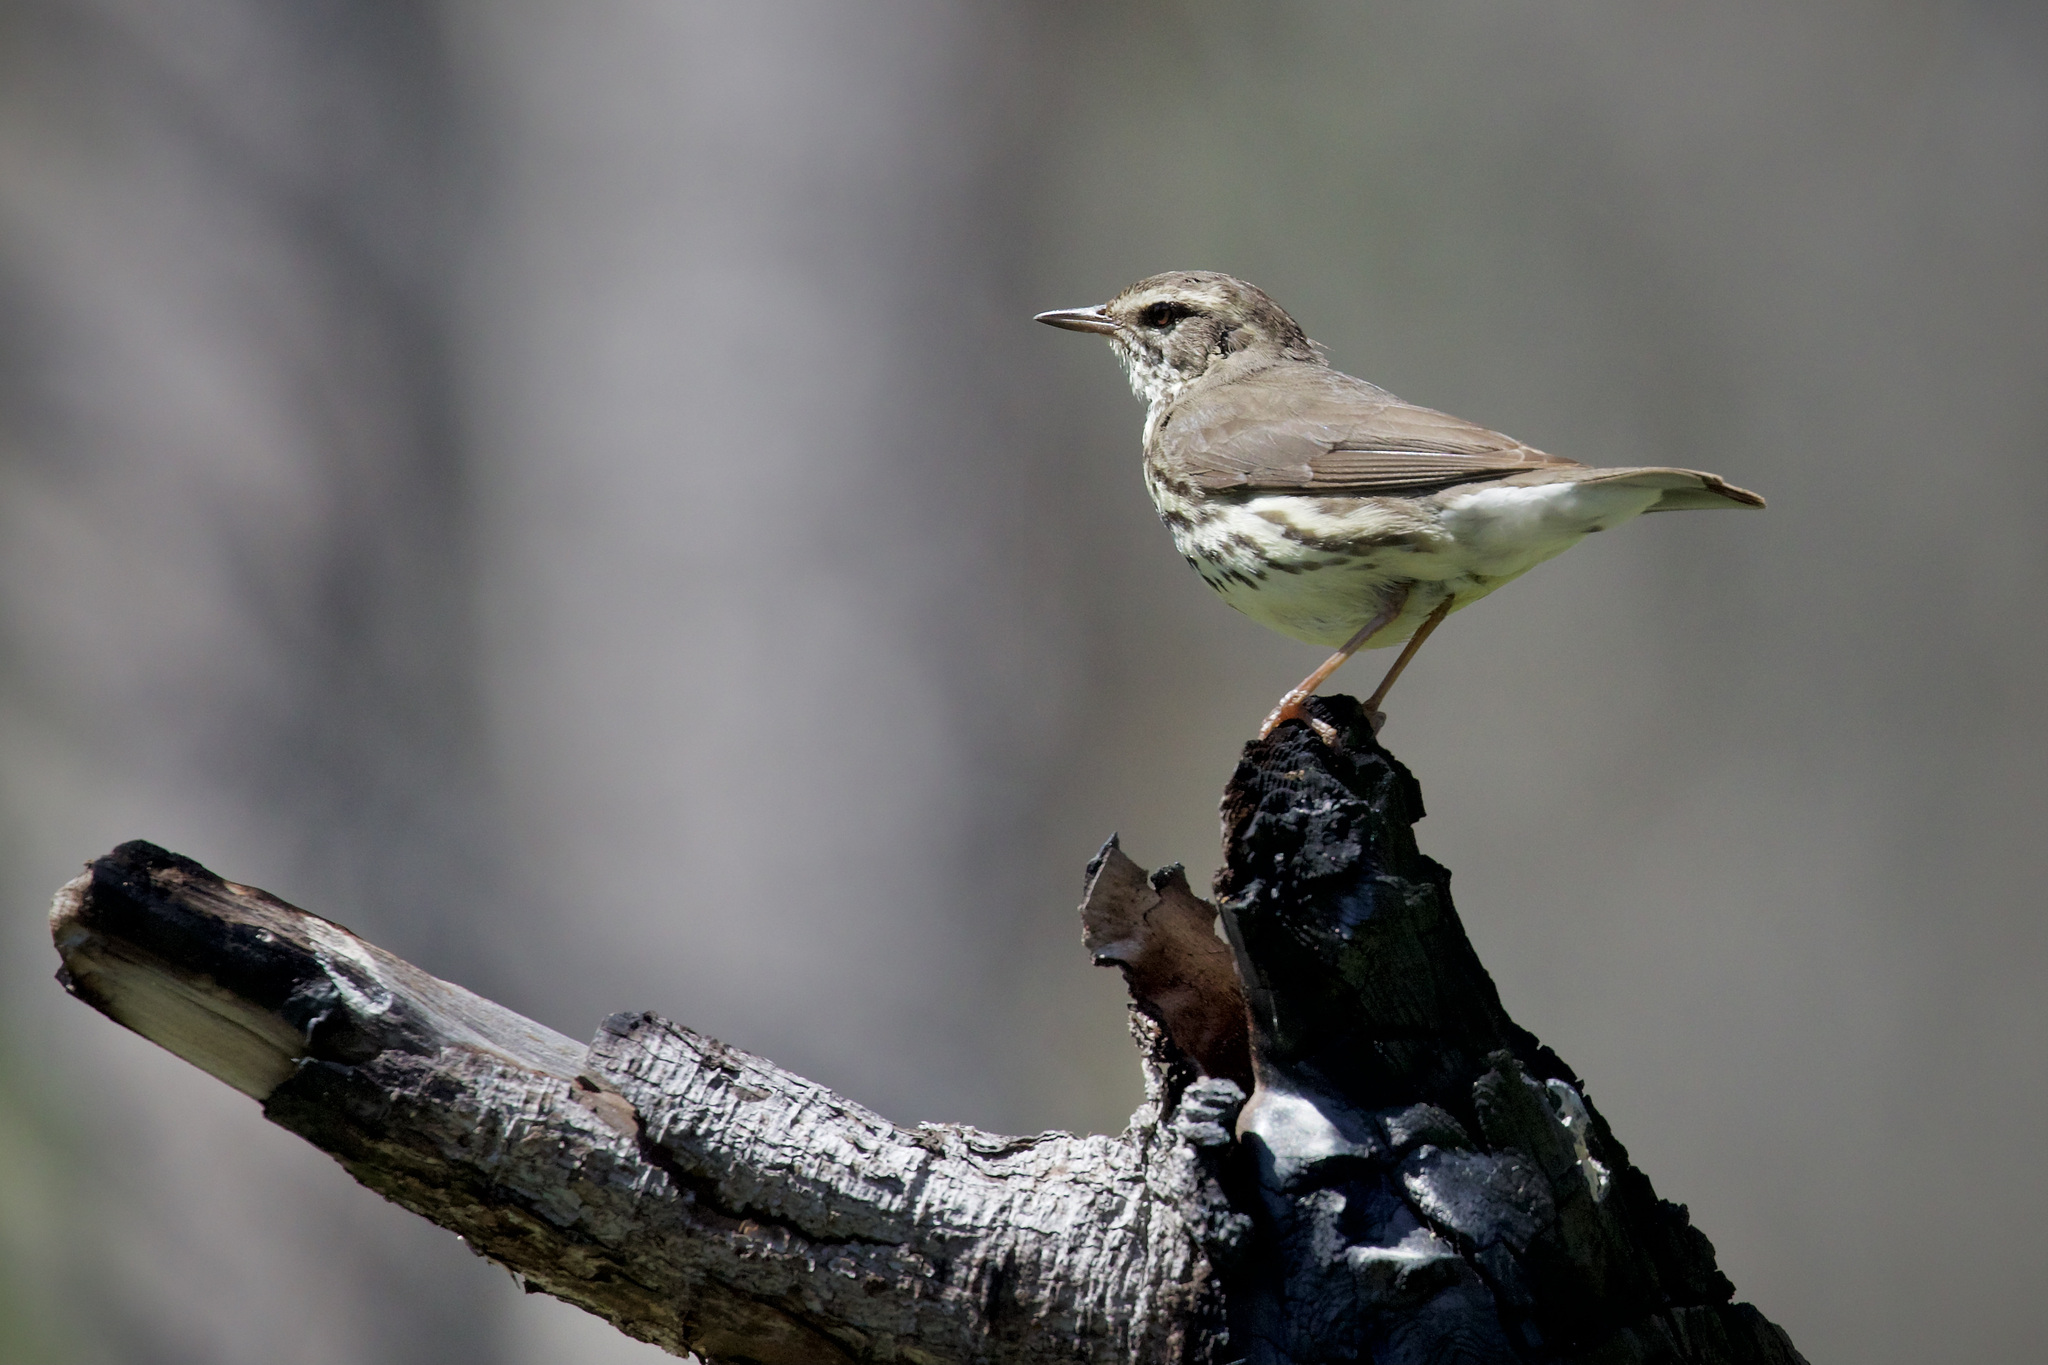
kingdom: Animalia
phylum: Chordata
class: Aves
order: Passeriformes
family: Parulidae
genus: Parkesia
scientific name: Parkesia noveboracensis
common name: Northern waterthrush
